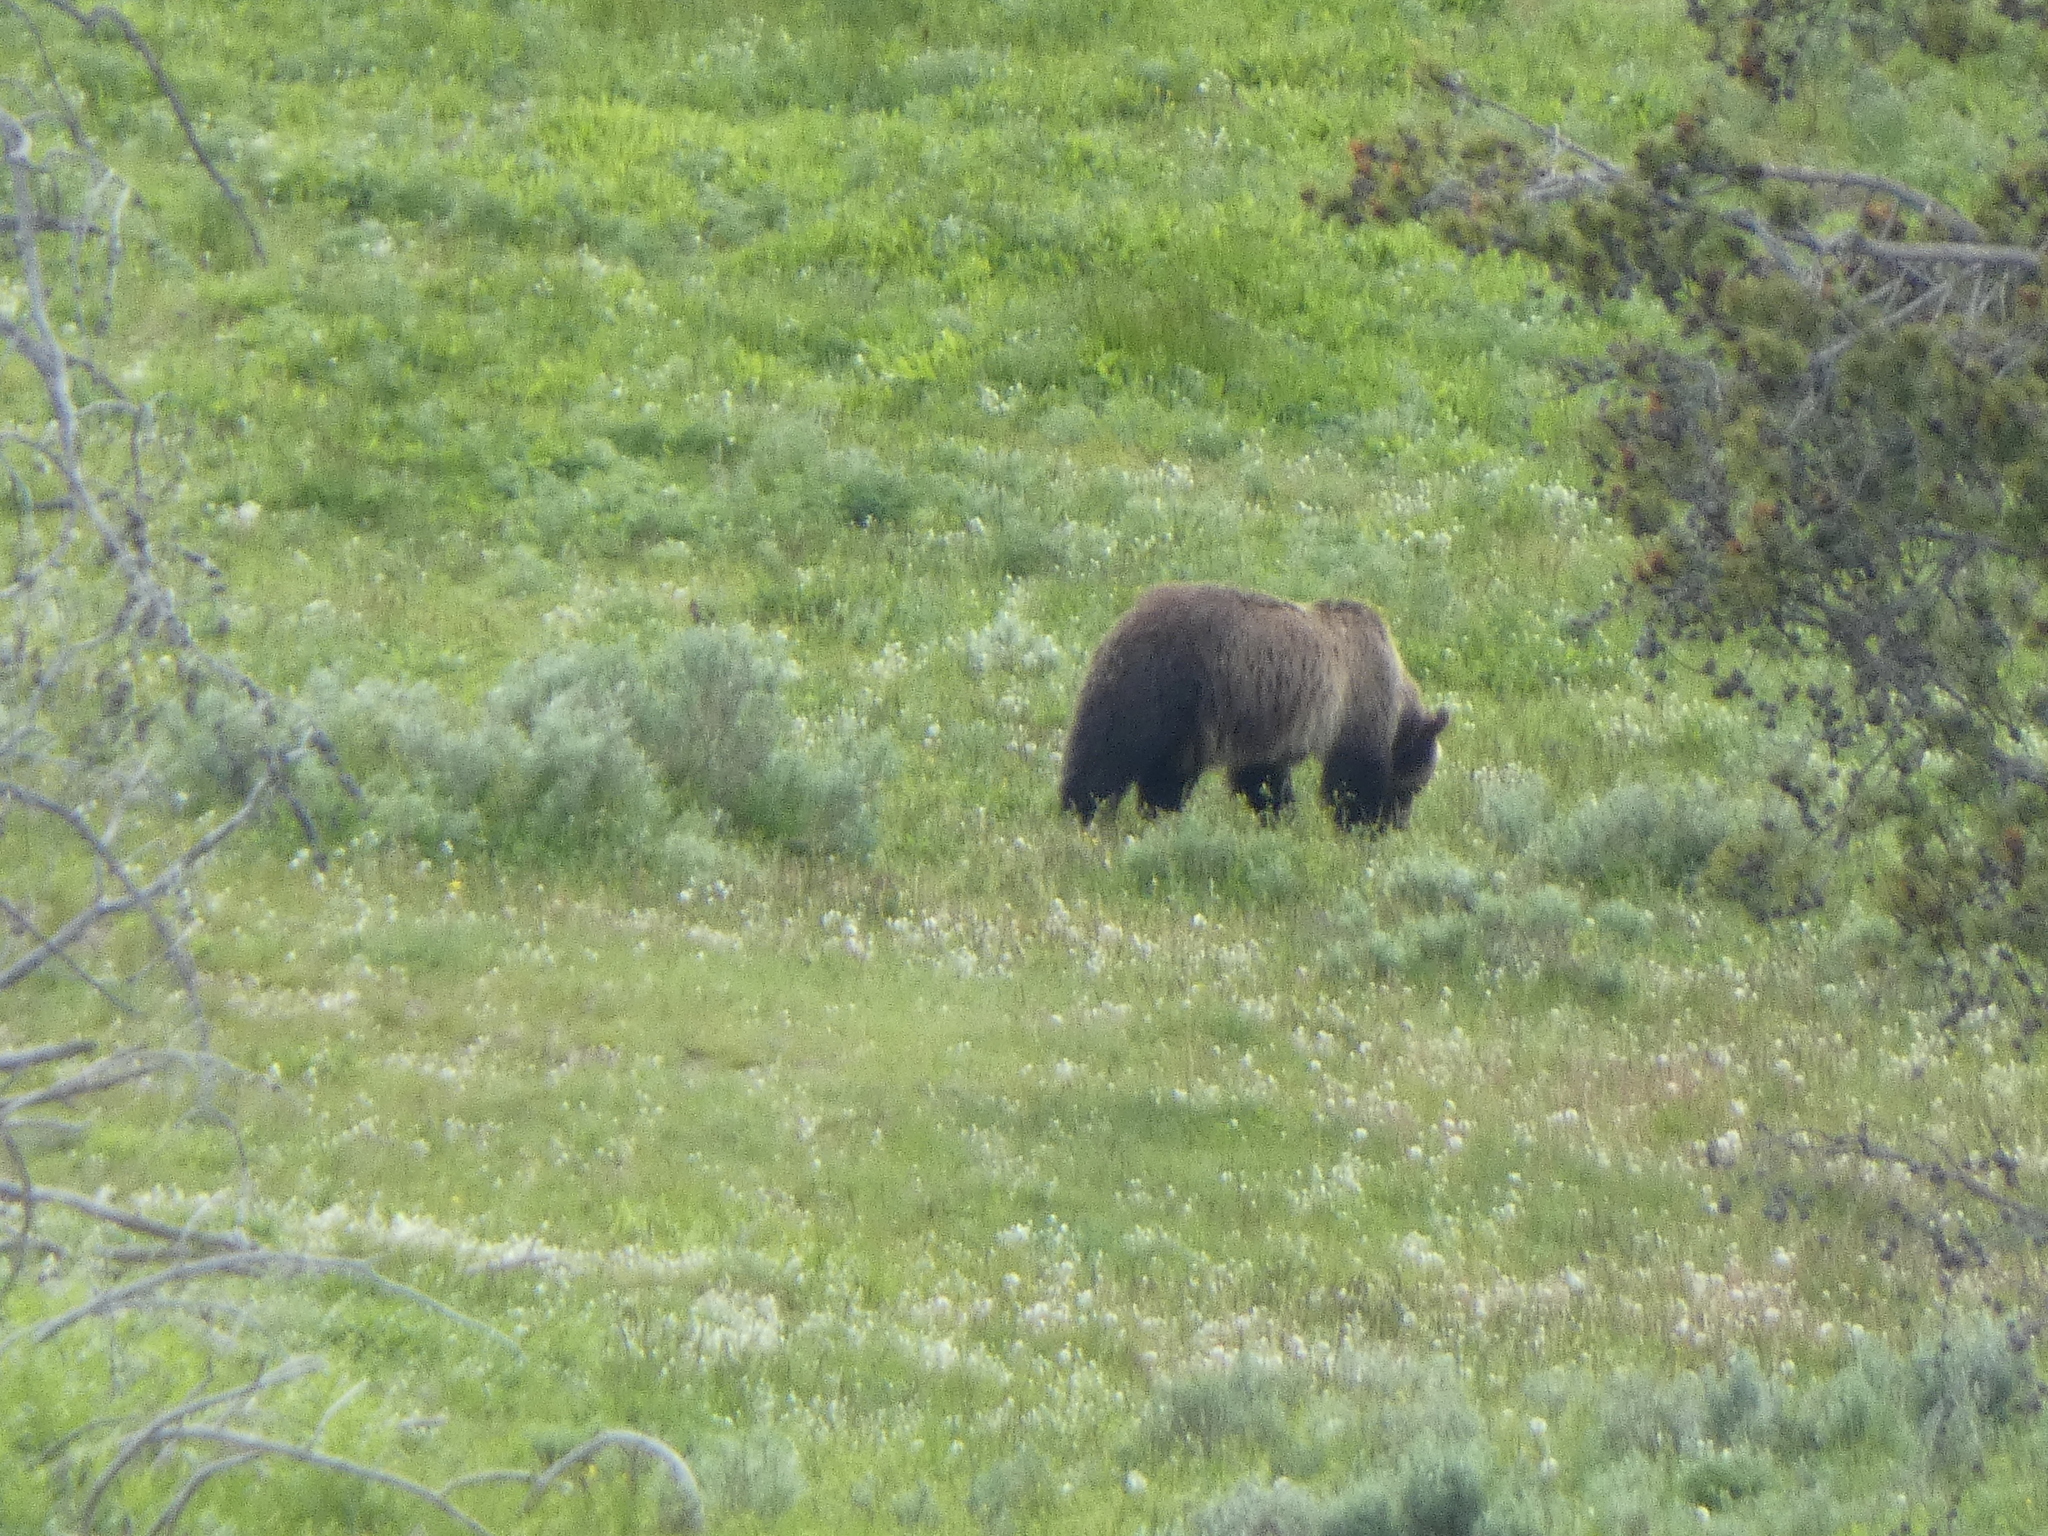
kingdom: Animalia
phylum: Chordata
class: Mammalia
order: Carnivora
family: Ursidae
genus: Ursus
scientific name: Ursus arctos
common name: Brown bear
